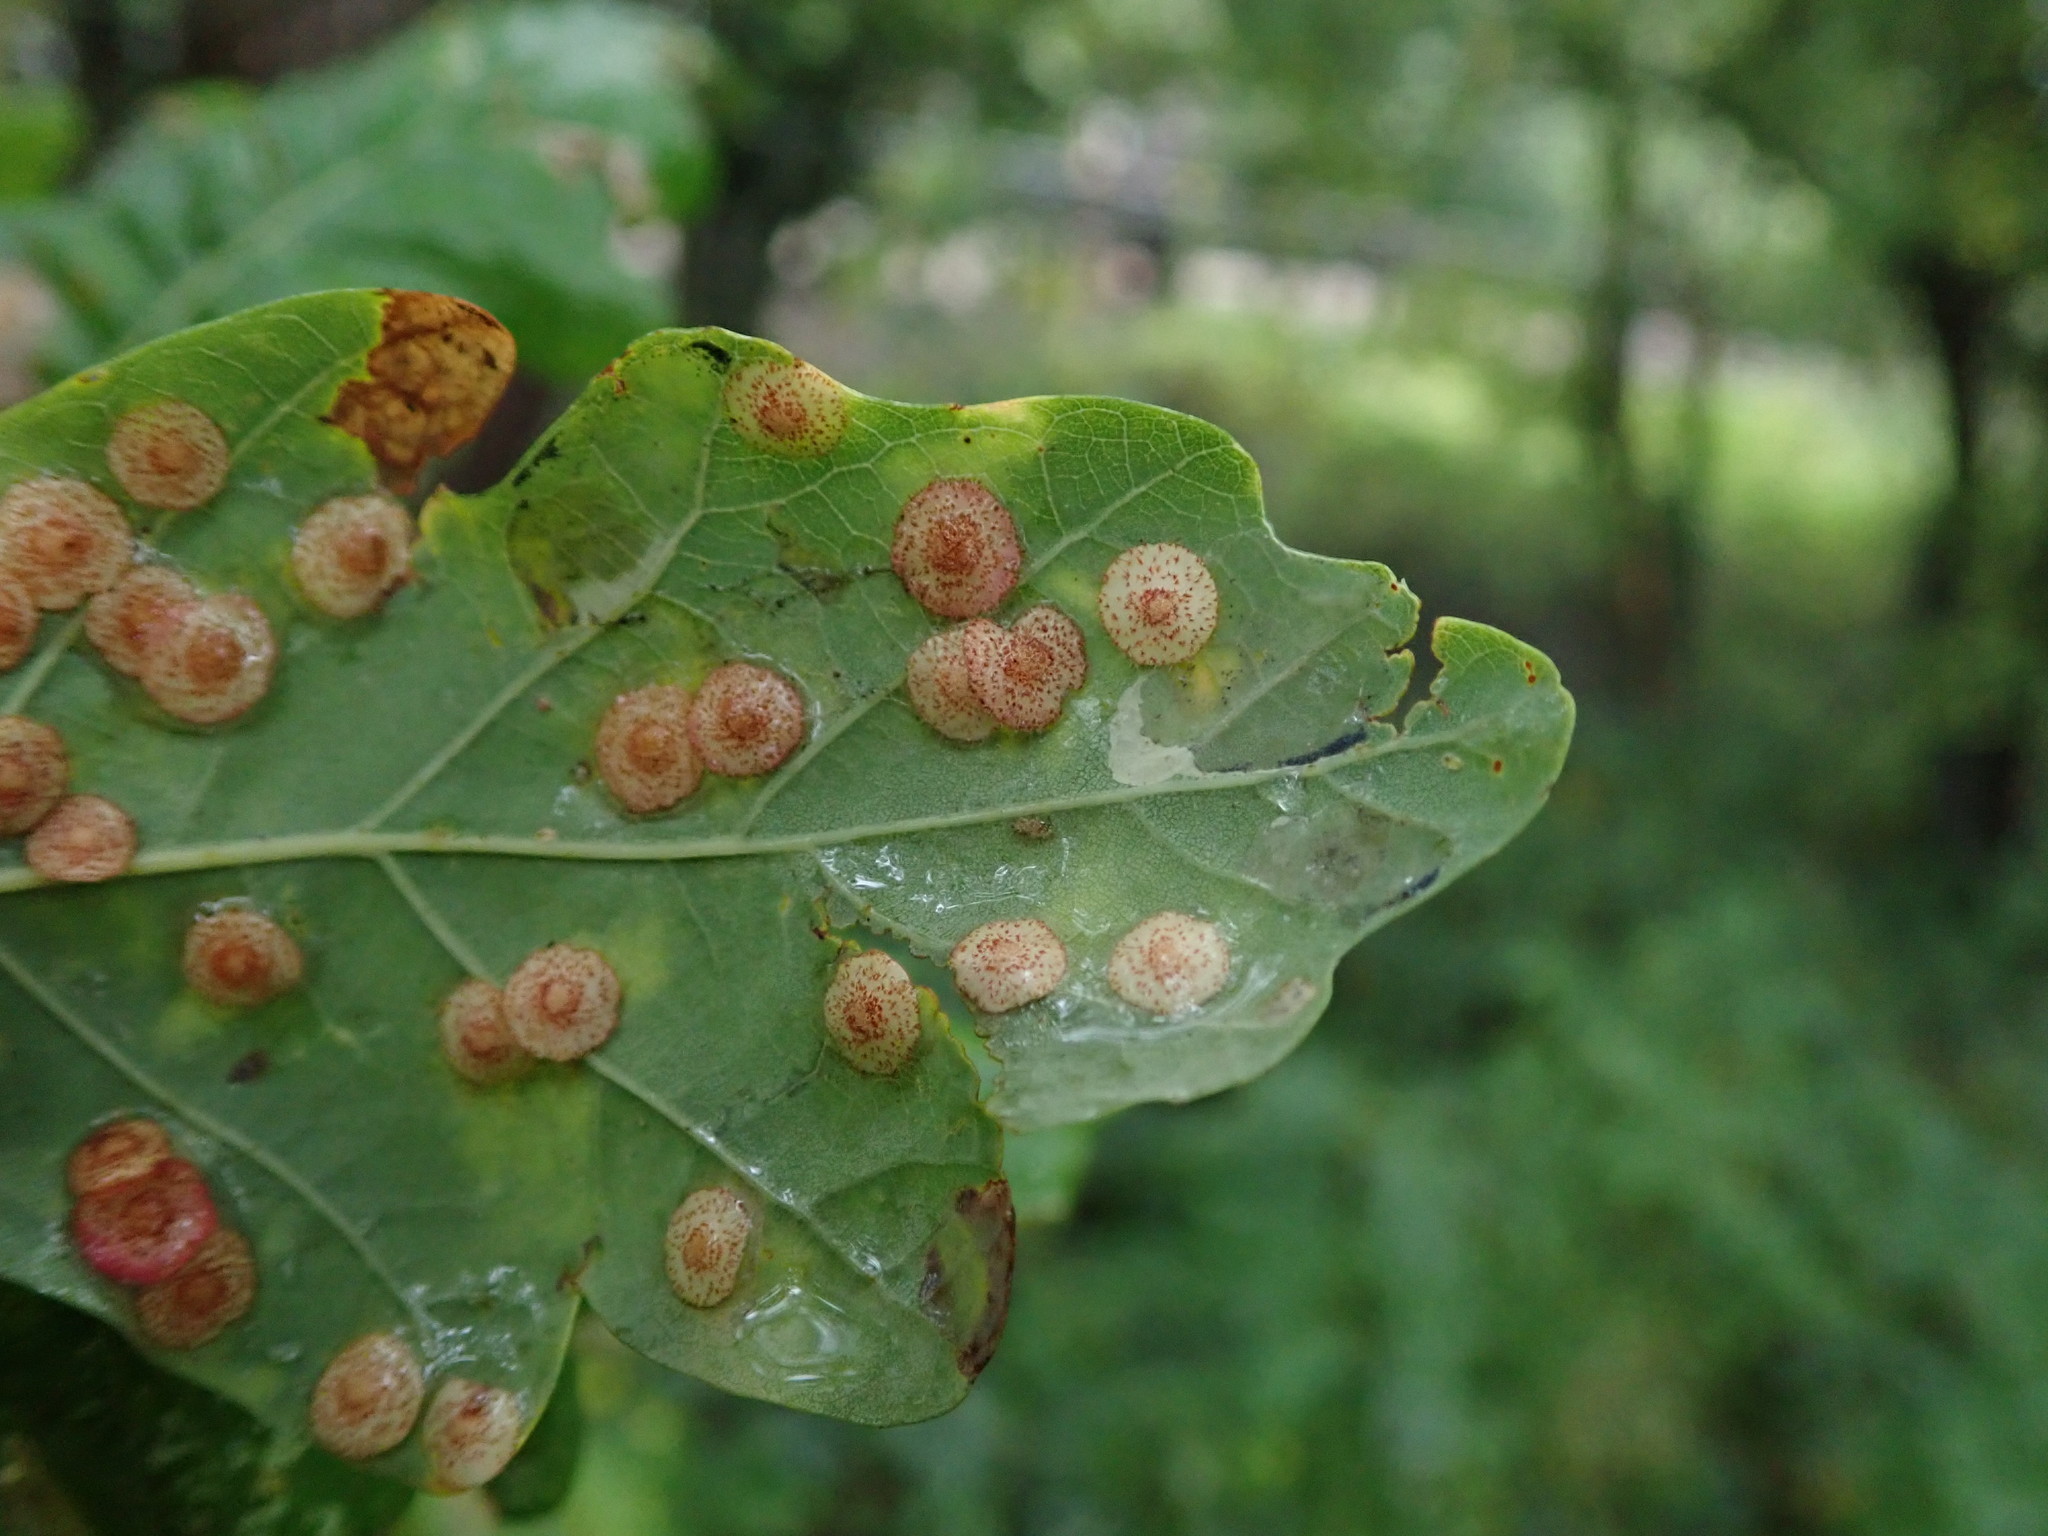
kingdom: Animalia
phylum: Arthropoda
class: Insecta
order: Hymenoptera
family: Cynipidae
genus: Neuroterus
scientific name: Neuroterus quercusbaccarum
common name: Common spangle gall
